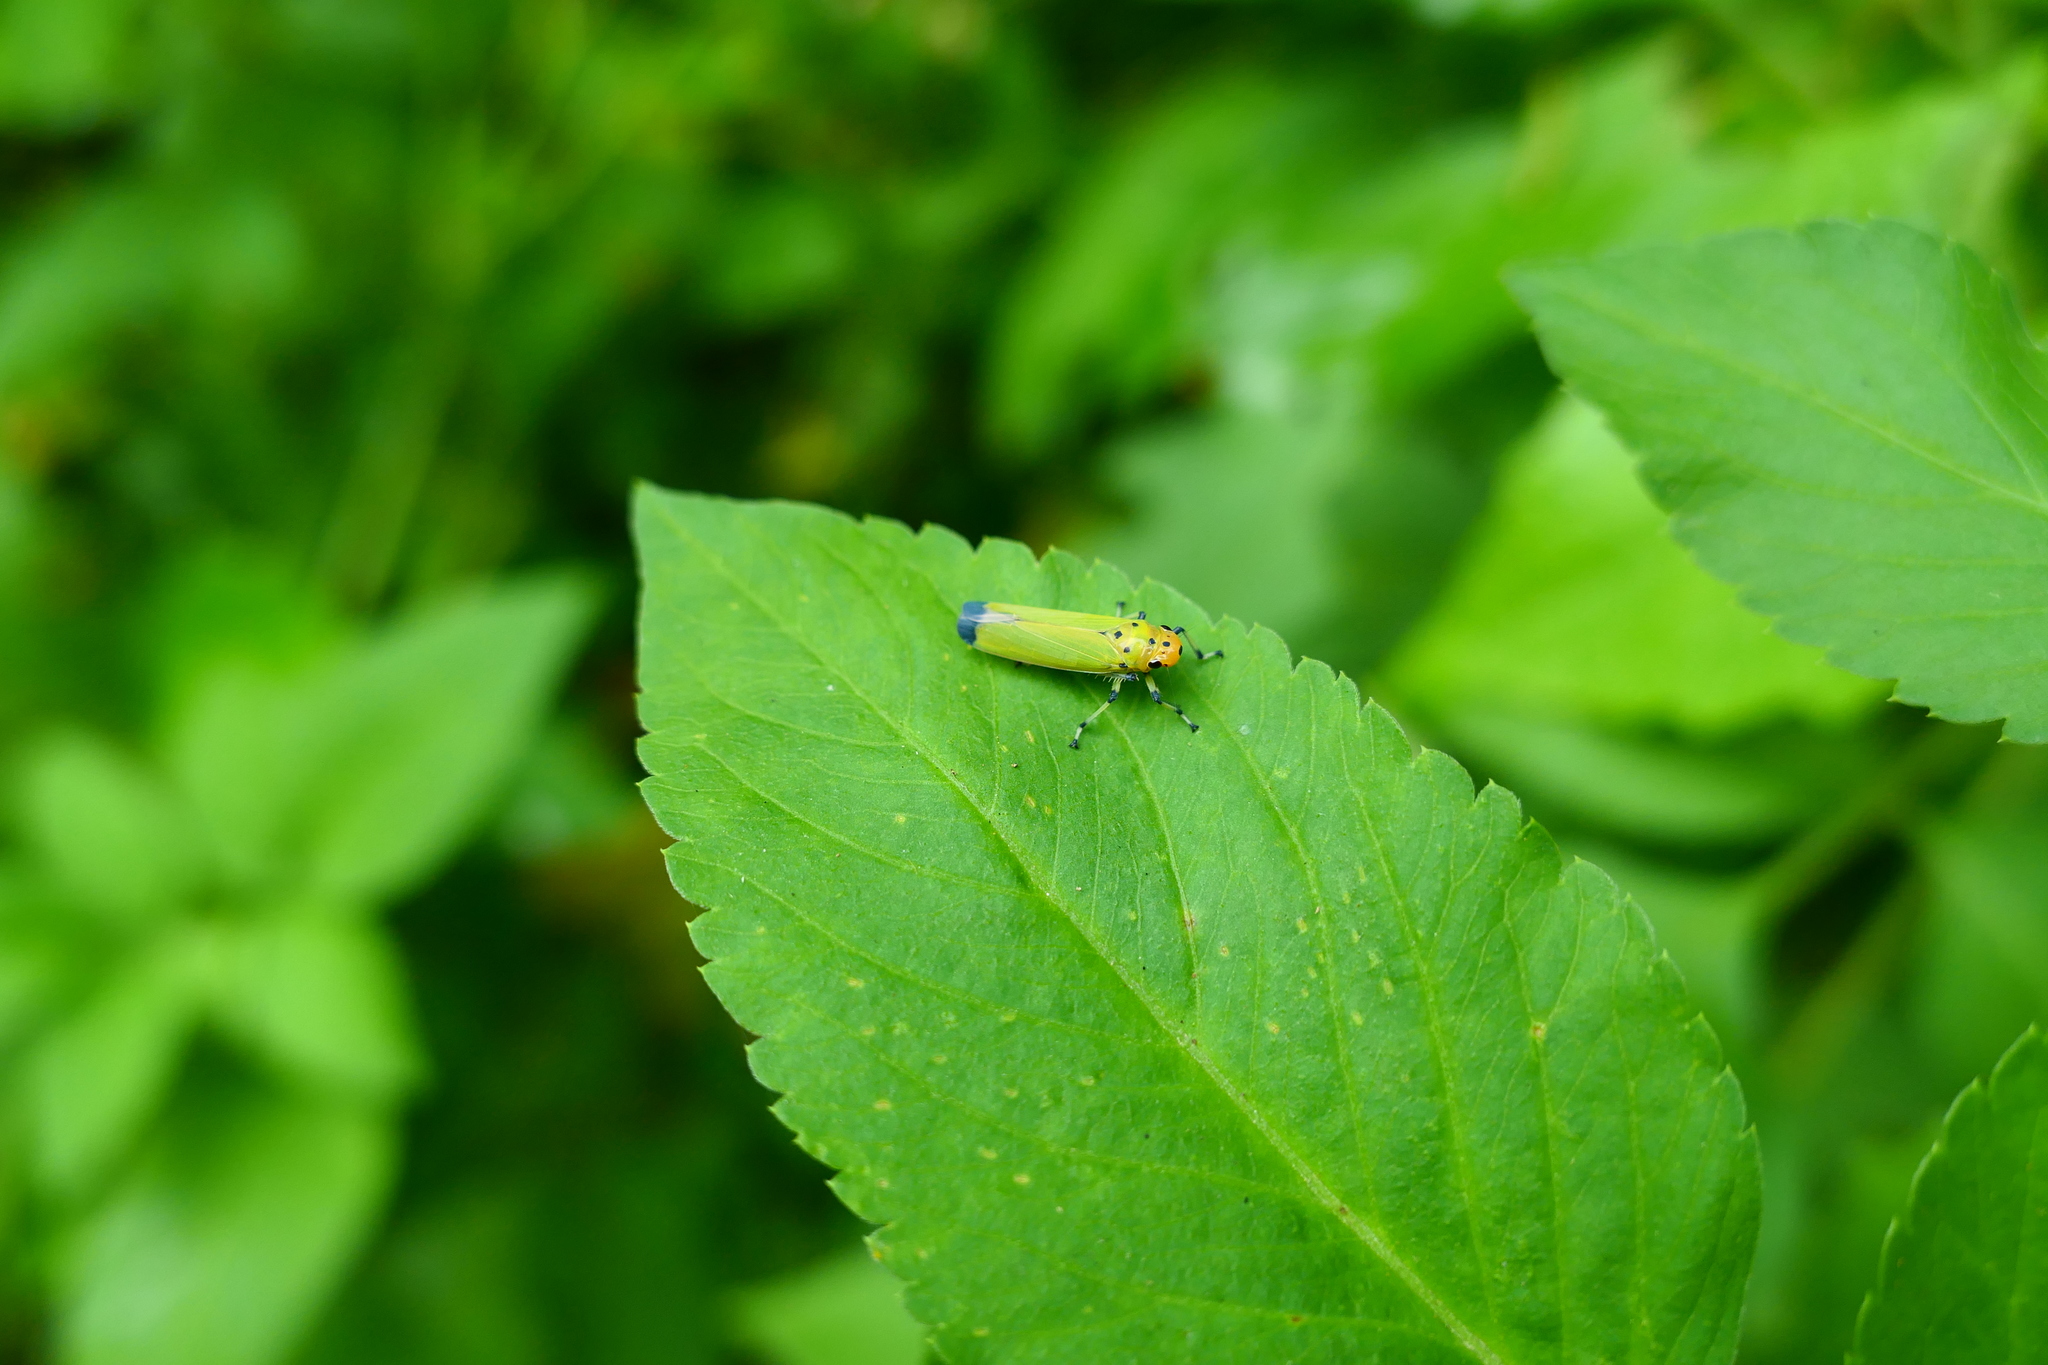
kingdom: Animalia
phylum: Arthropoda
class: Insecta
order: Hemiptera
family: Cicadellidae
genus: Bothrogonia
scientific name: Bothrogonia ferruginea
